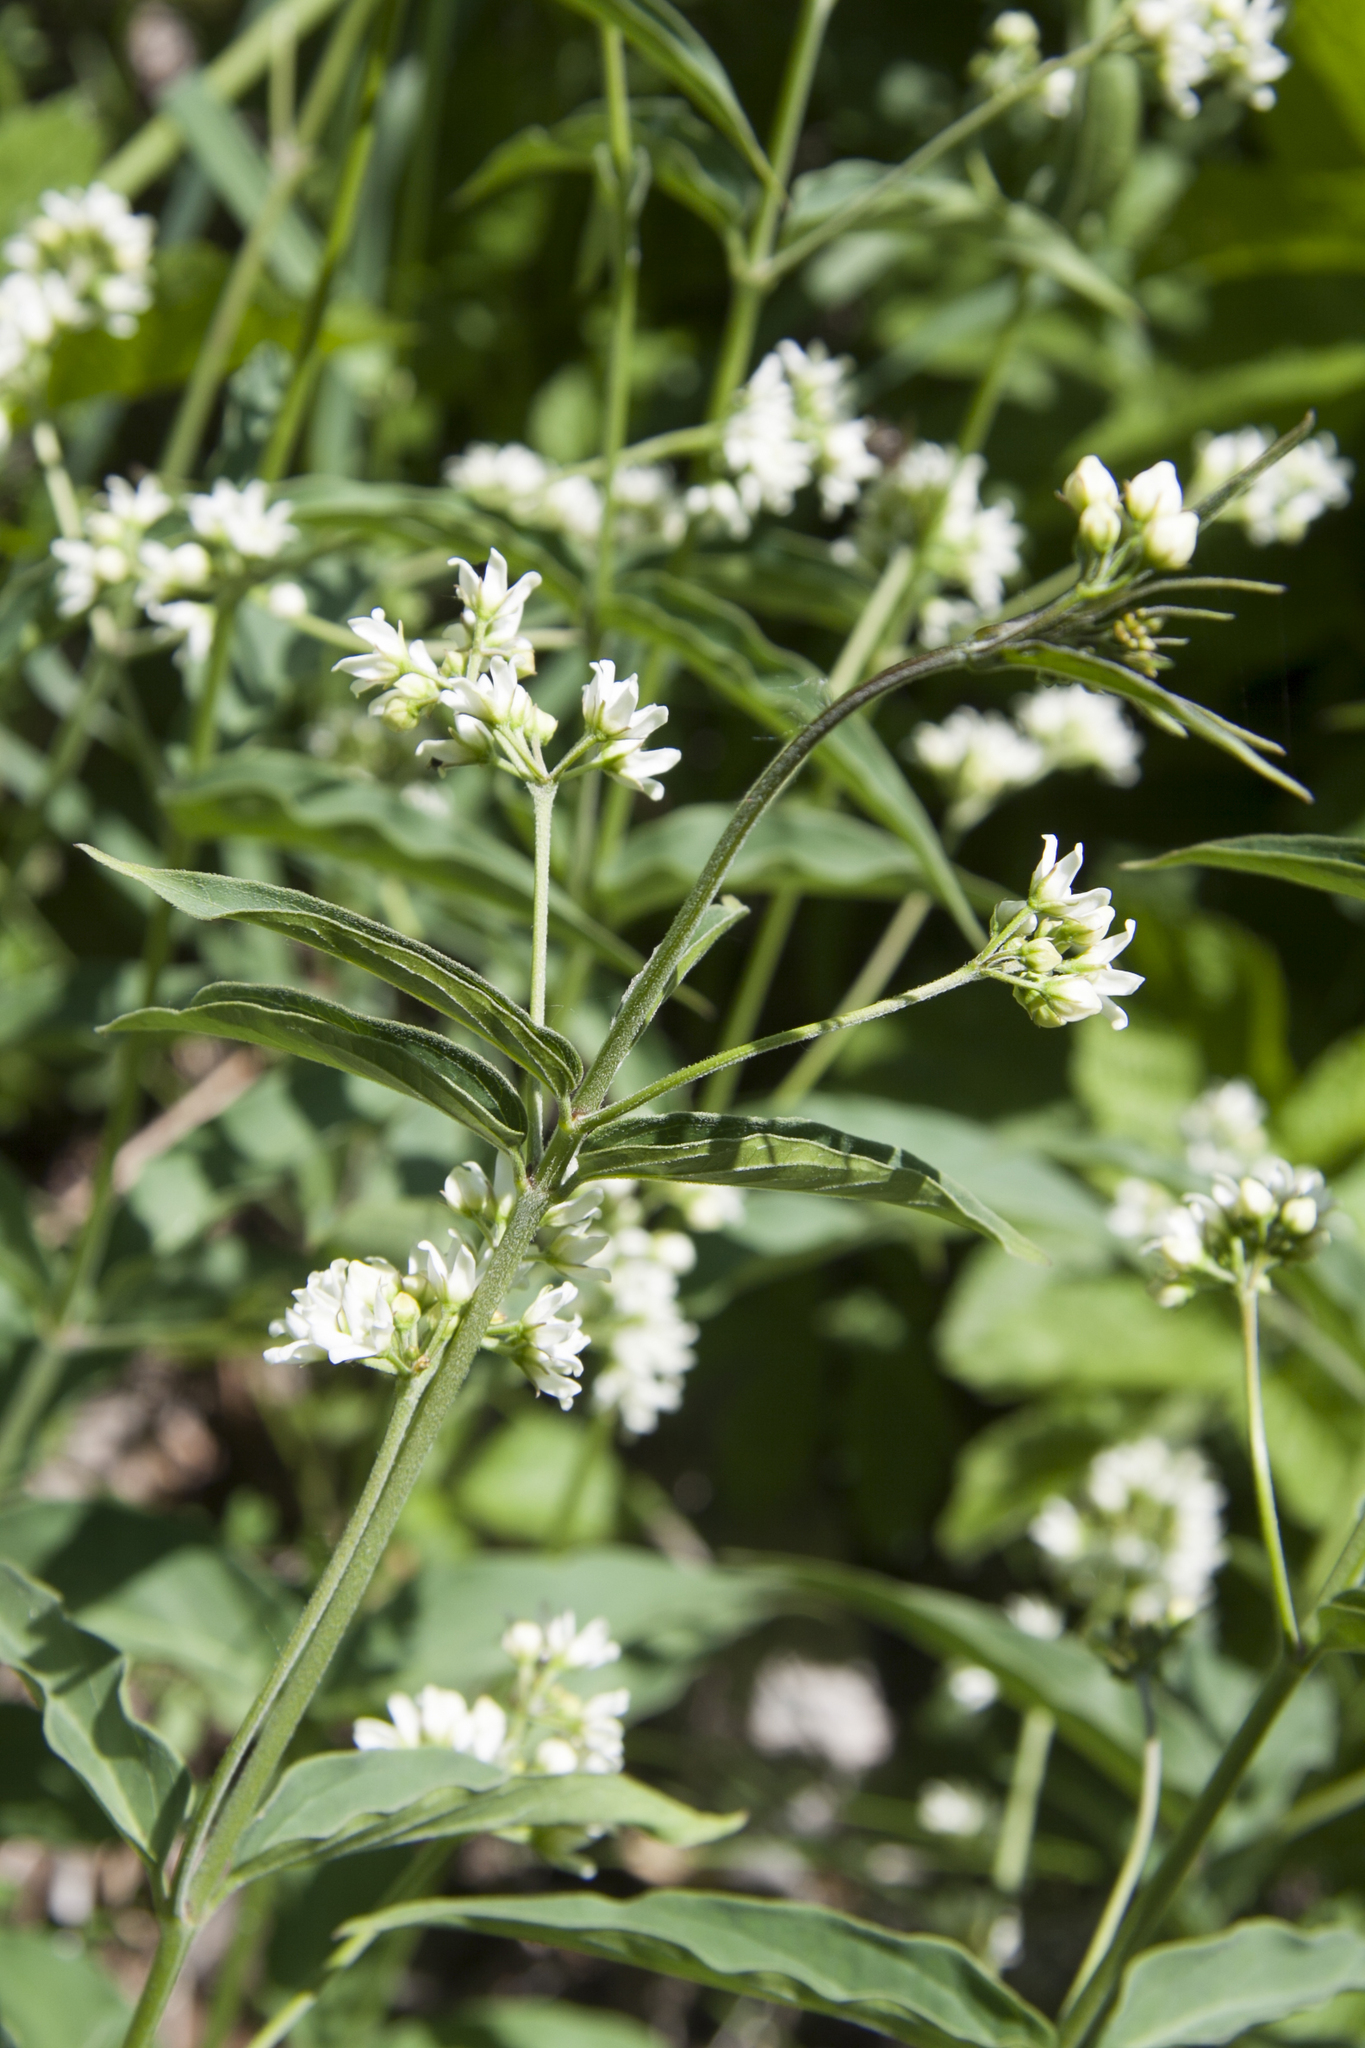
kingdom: Plantae
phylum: Tracheophyta
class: Magnoliopsida
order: Gentianales
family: Apocynaceae
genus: Vincetoxicum
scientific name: Vincetoxicum hirundinaria
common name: White swallowwort
